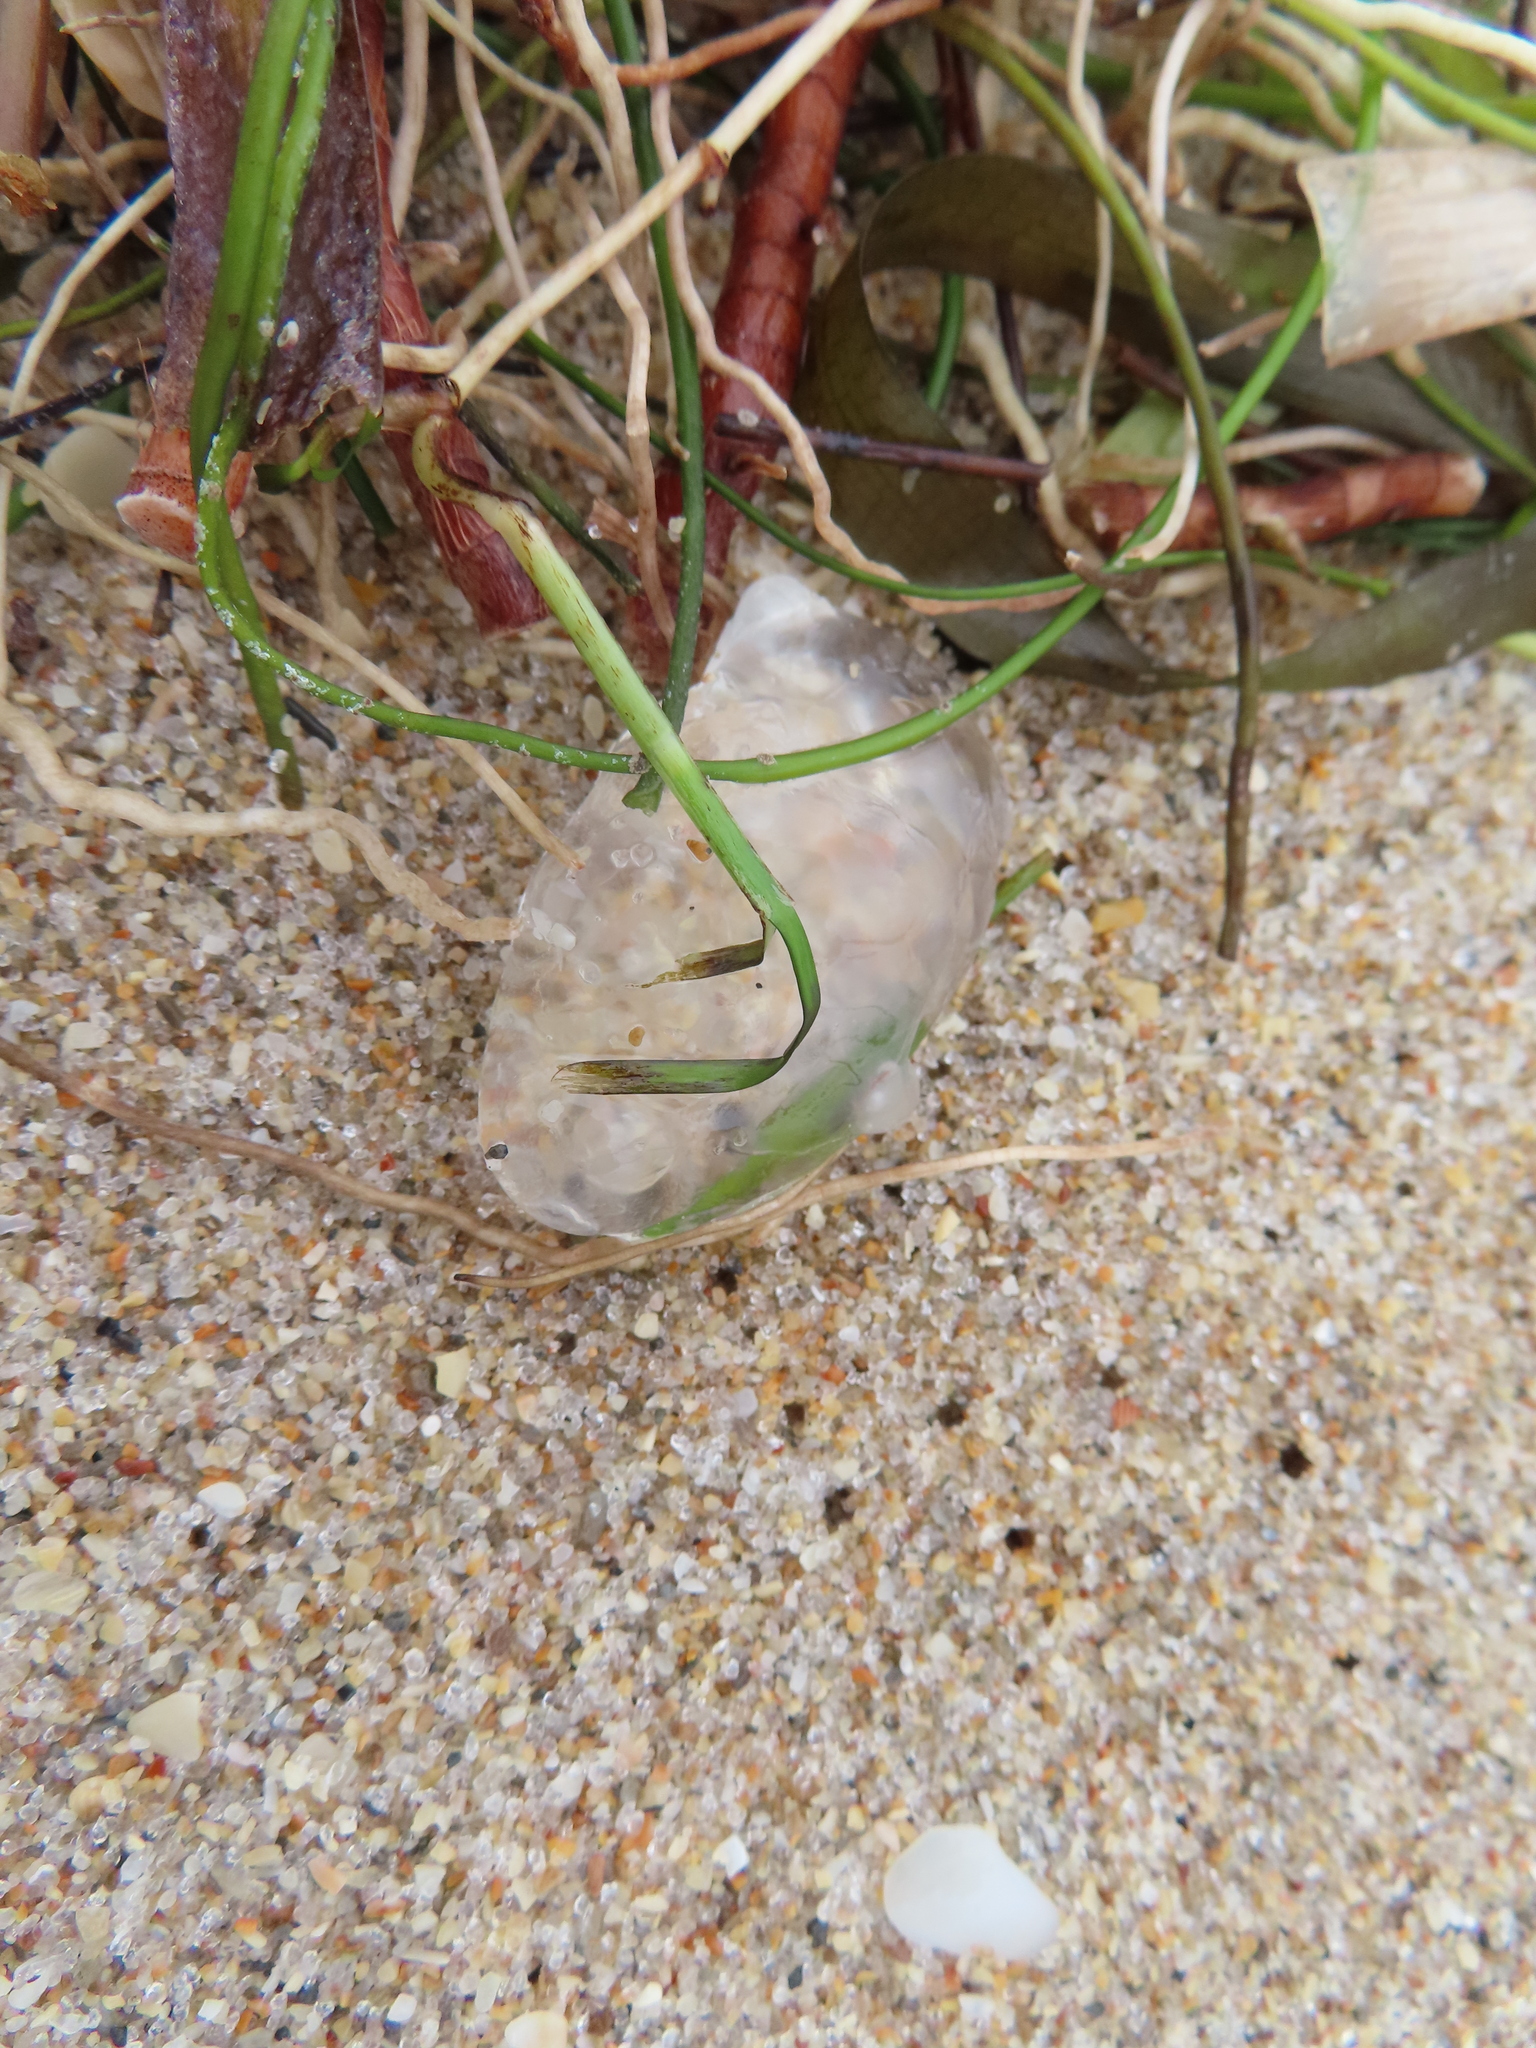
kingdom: Animalia
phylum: Cnidaria
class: Hydrozoa
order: Siphonophorae
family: Physaliidae
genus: Physalia
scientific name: Physalia physalis
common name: Portuguese man-of-war
